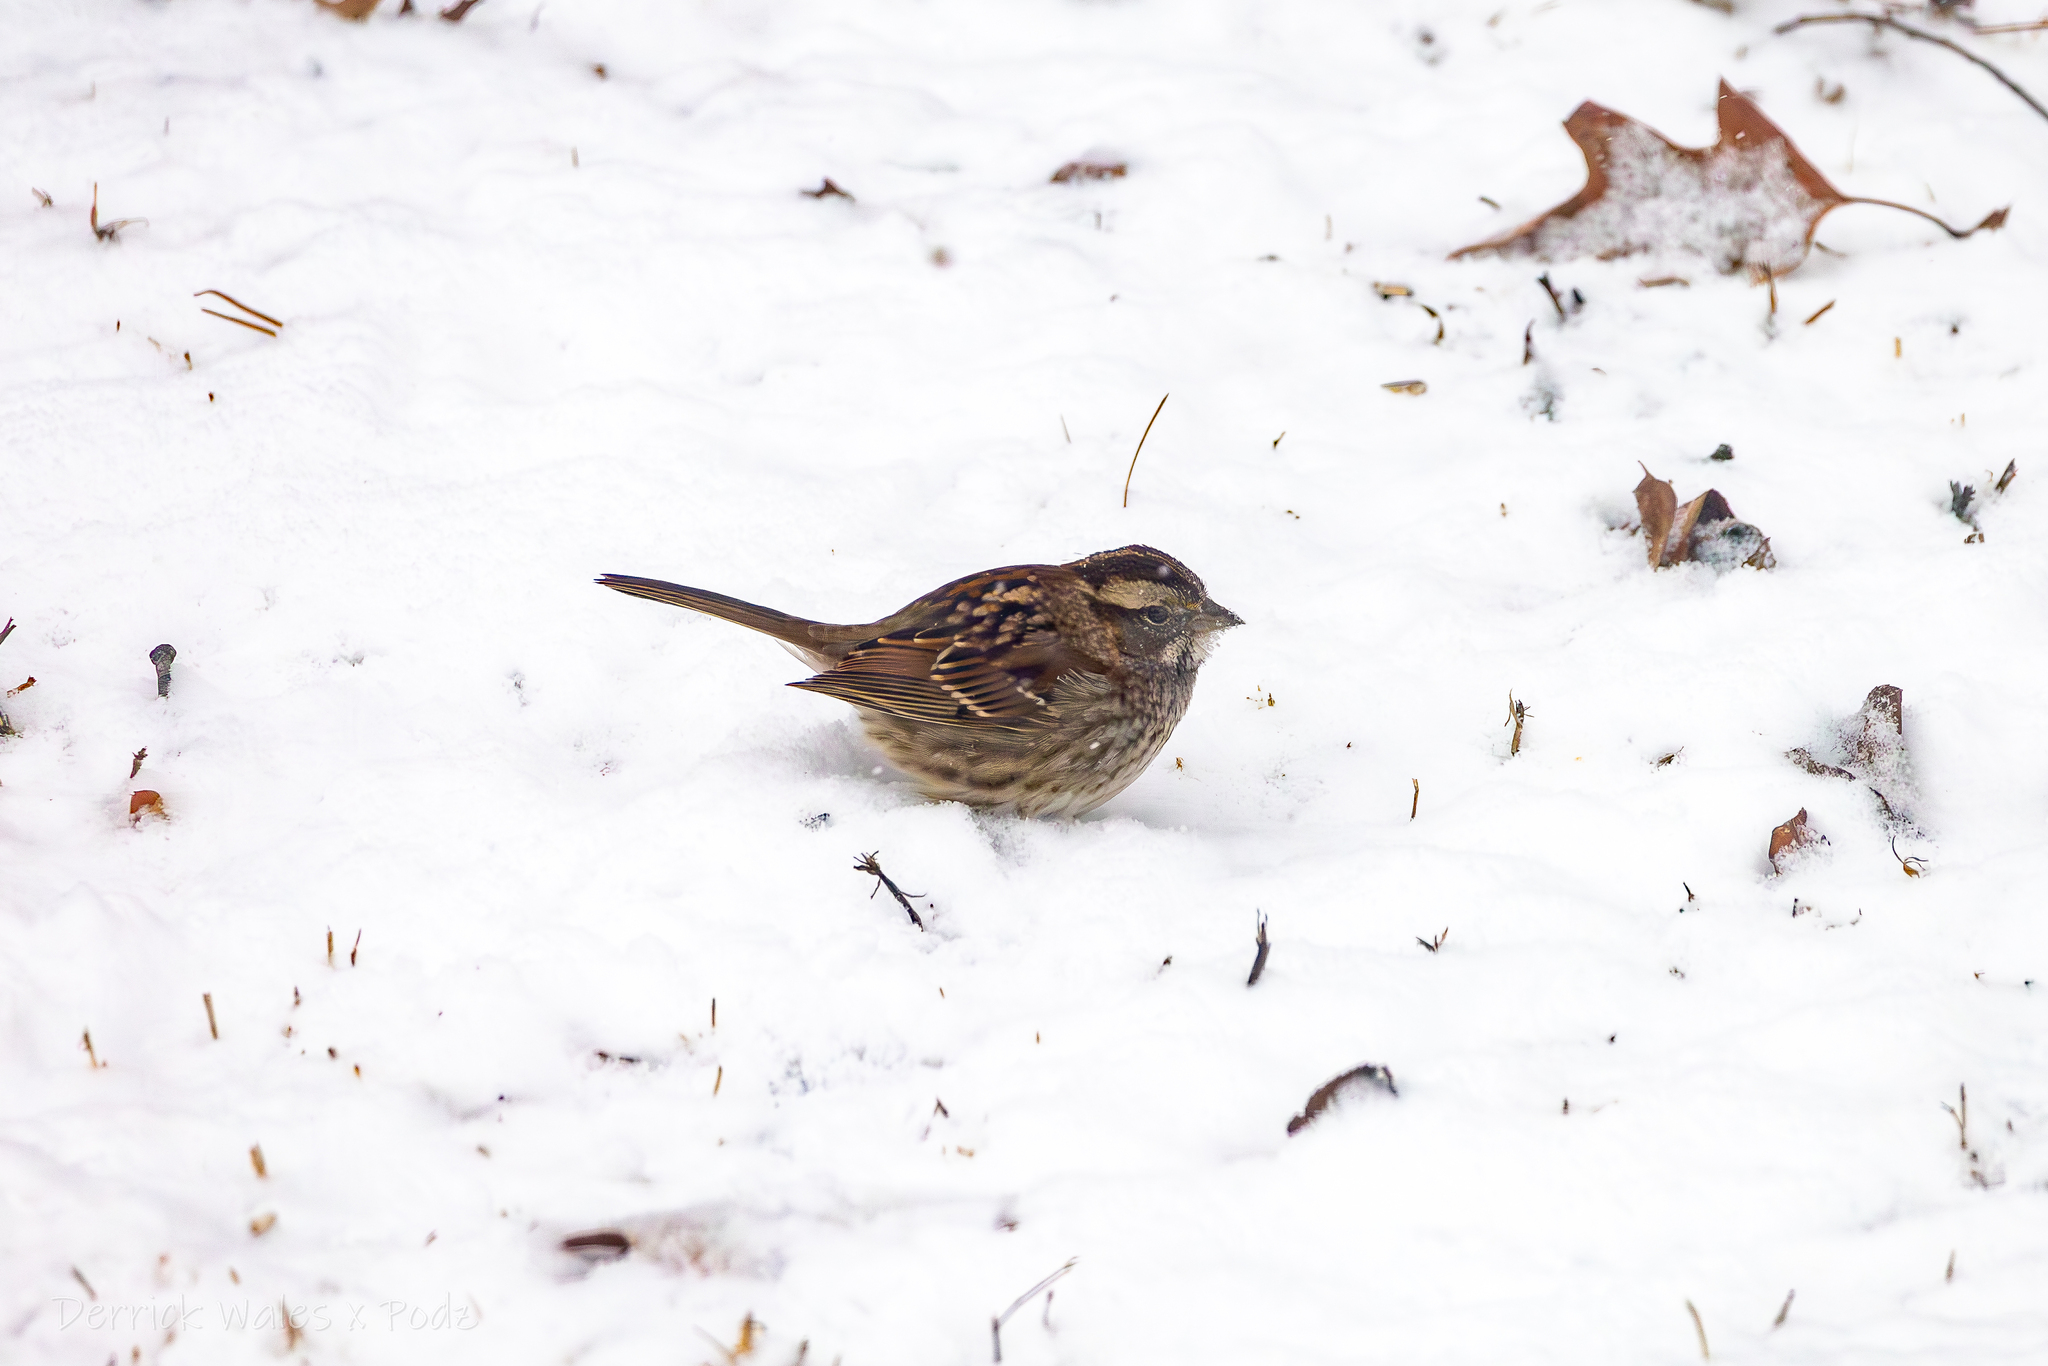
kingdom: Animalia
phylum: Chordata
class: Aves
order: Passeriformes
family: Passerellidae
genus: Zonotrichia
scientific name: Zonotrichia albicollis
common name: White-throated sparrow
